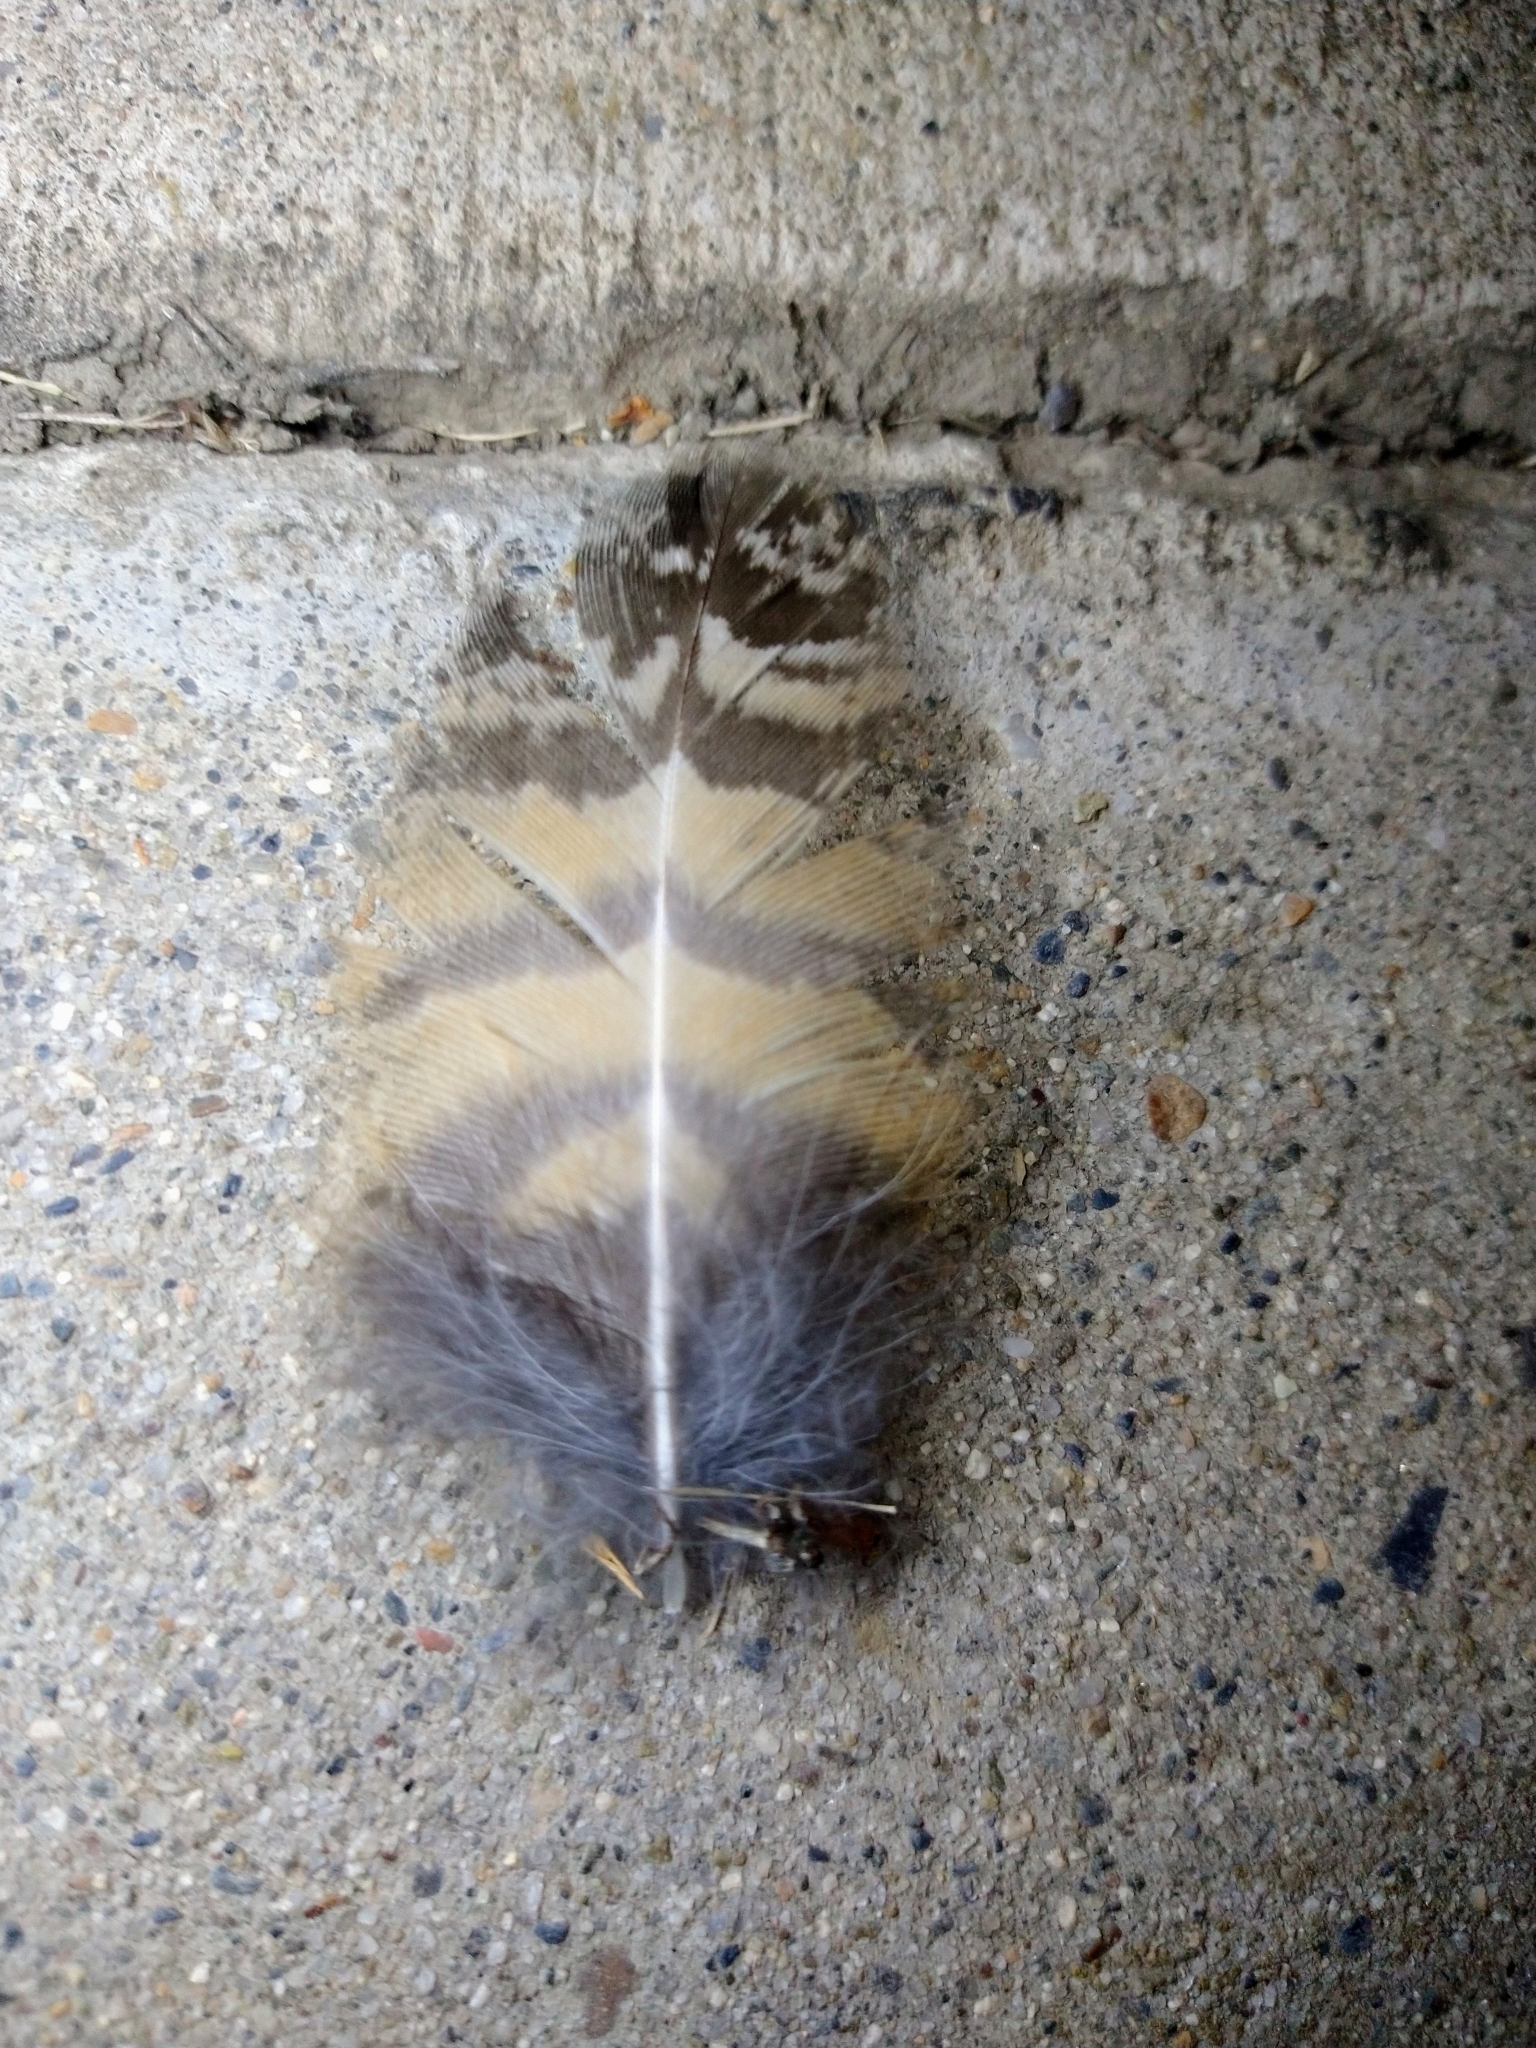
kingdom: Animalia
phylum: Chordata
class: Aves
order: Strigiformes
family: Strigidae
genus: Bubo
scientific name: Bubo virginianus
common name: Great horned owl
